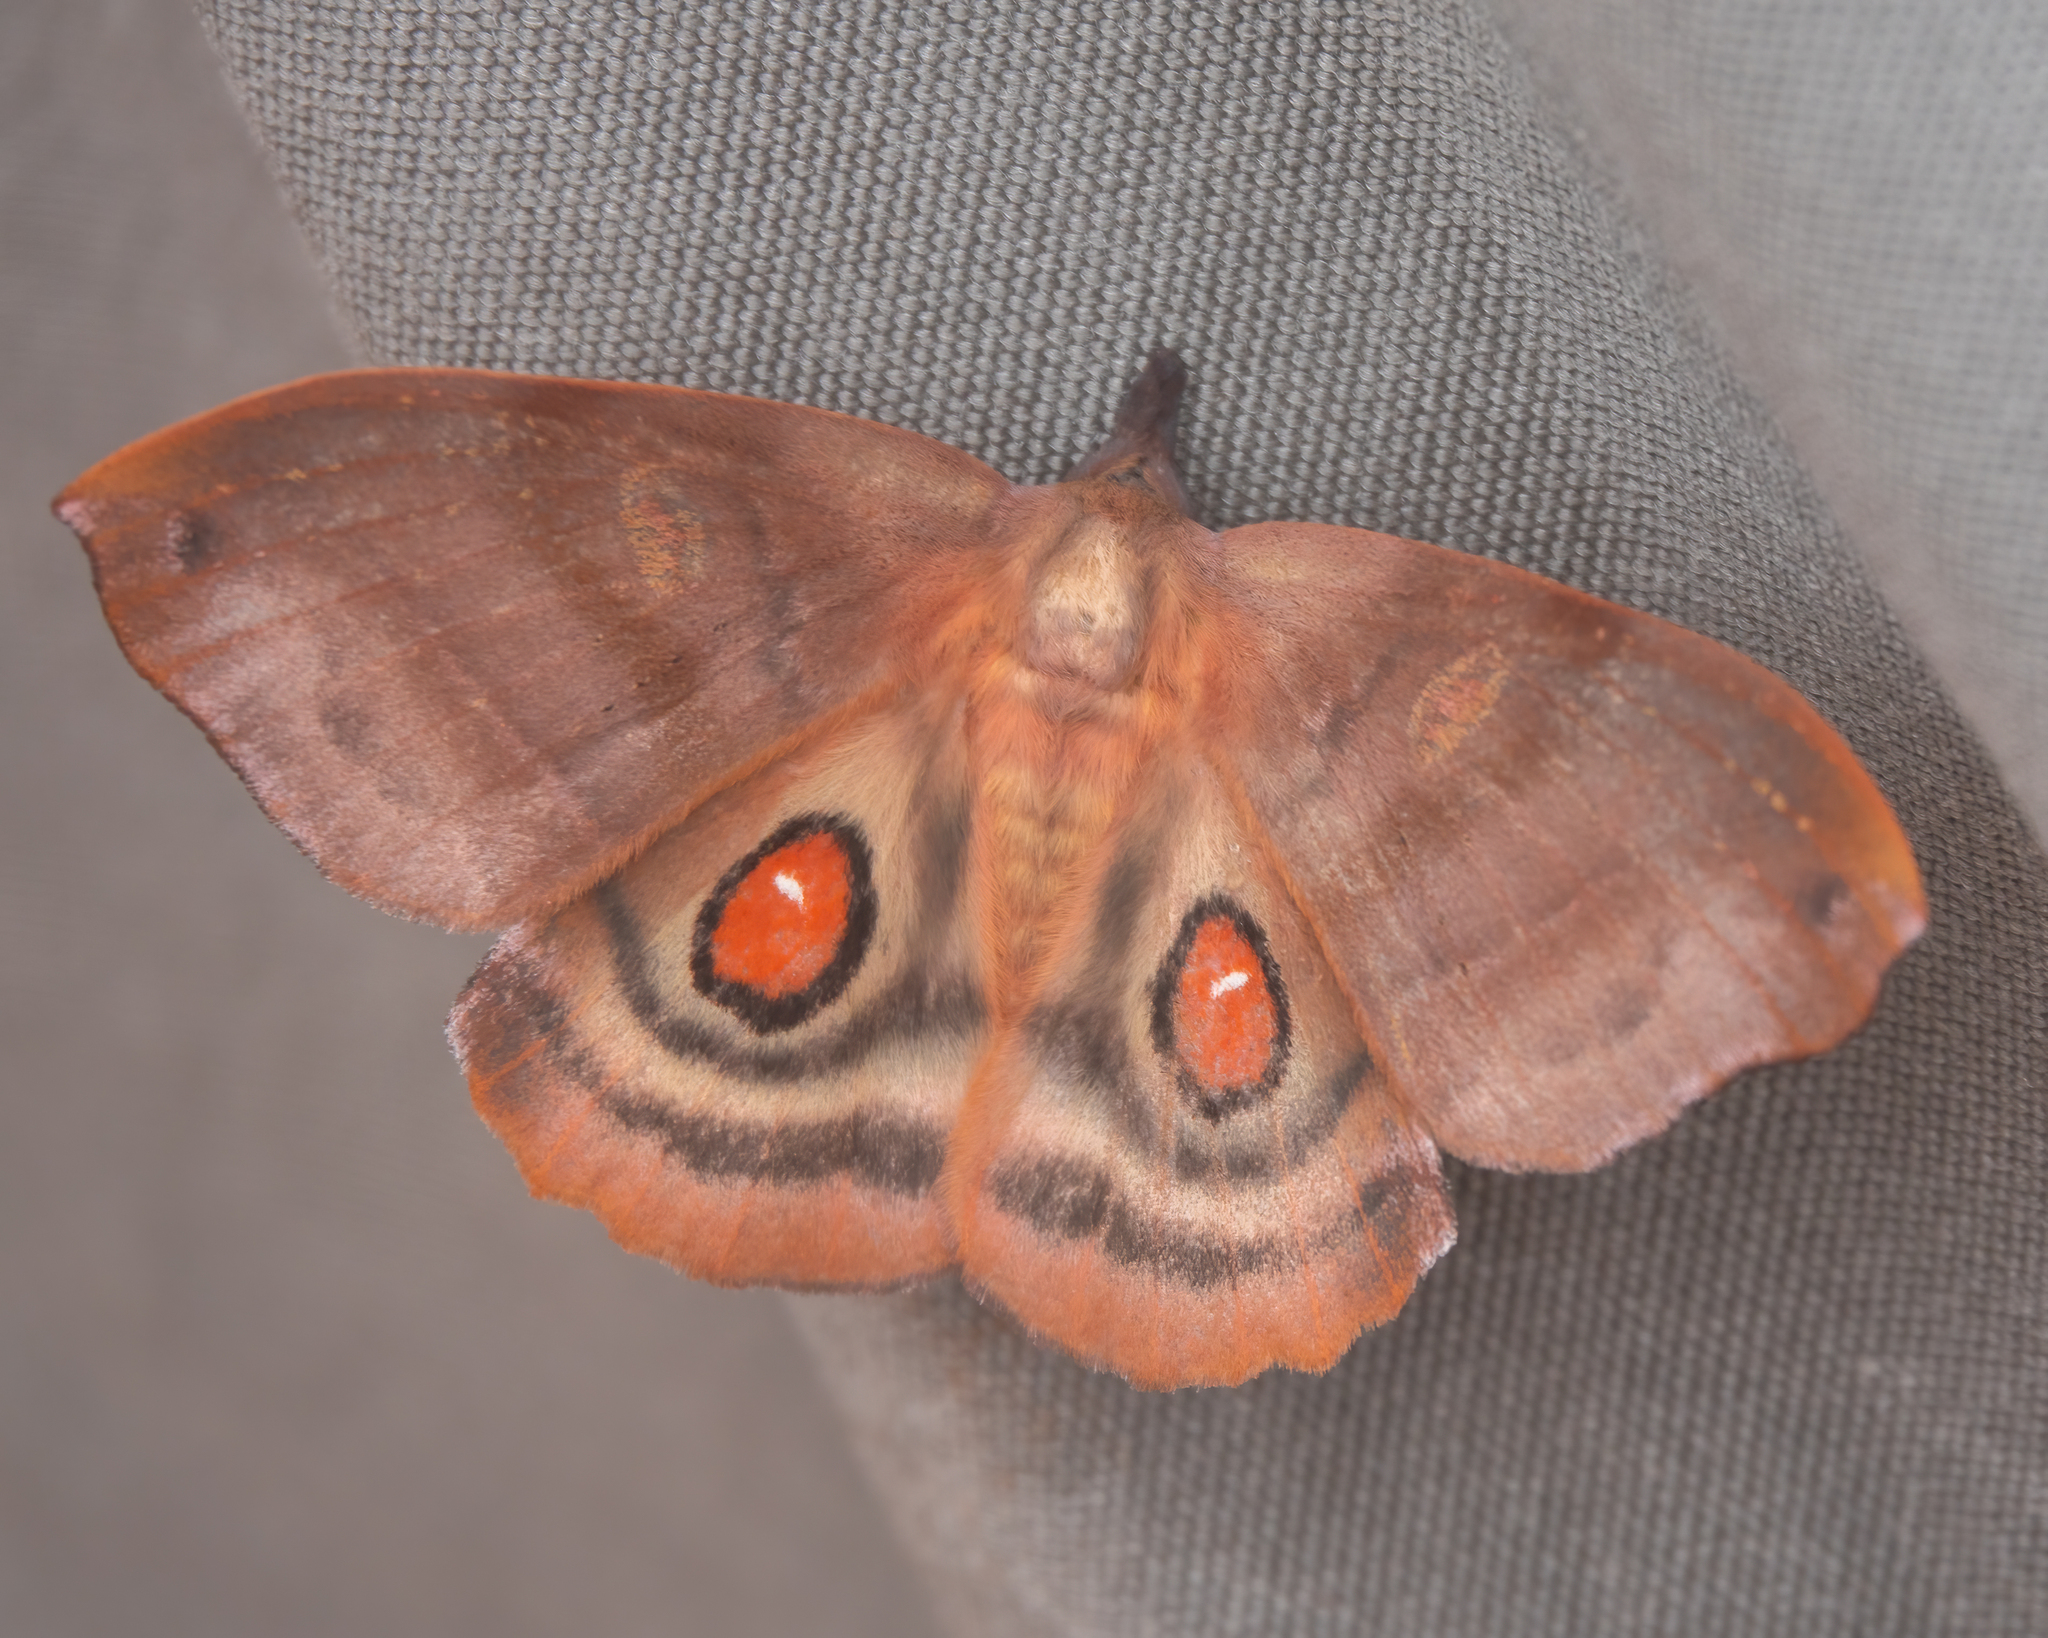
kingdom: Animalia
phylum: Arthropoda
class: Insecta
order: Lepidoptera
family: Saturniidae
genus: Automerina
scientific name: Automerina cypria
